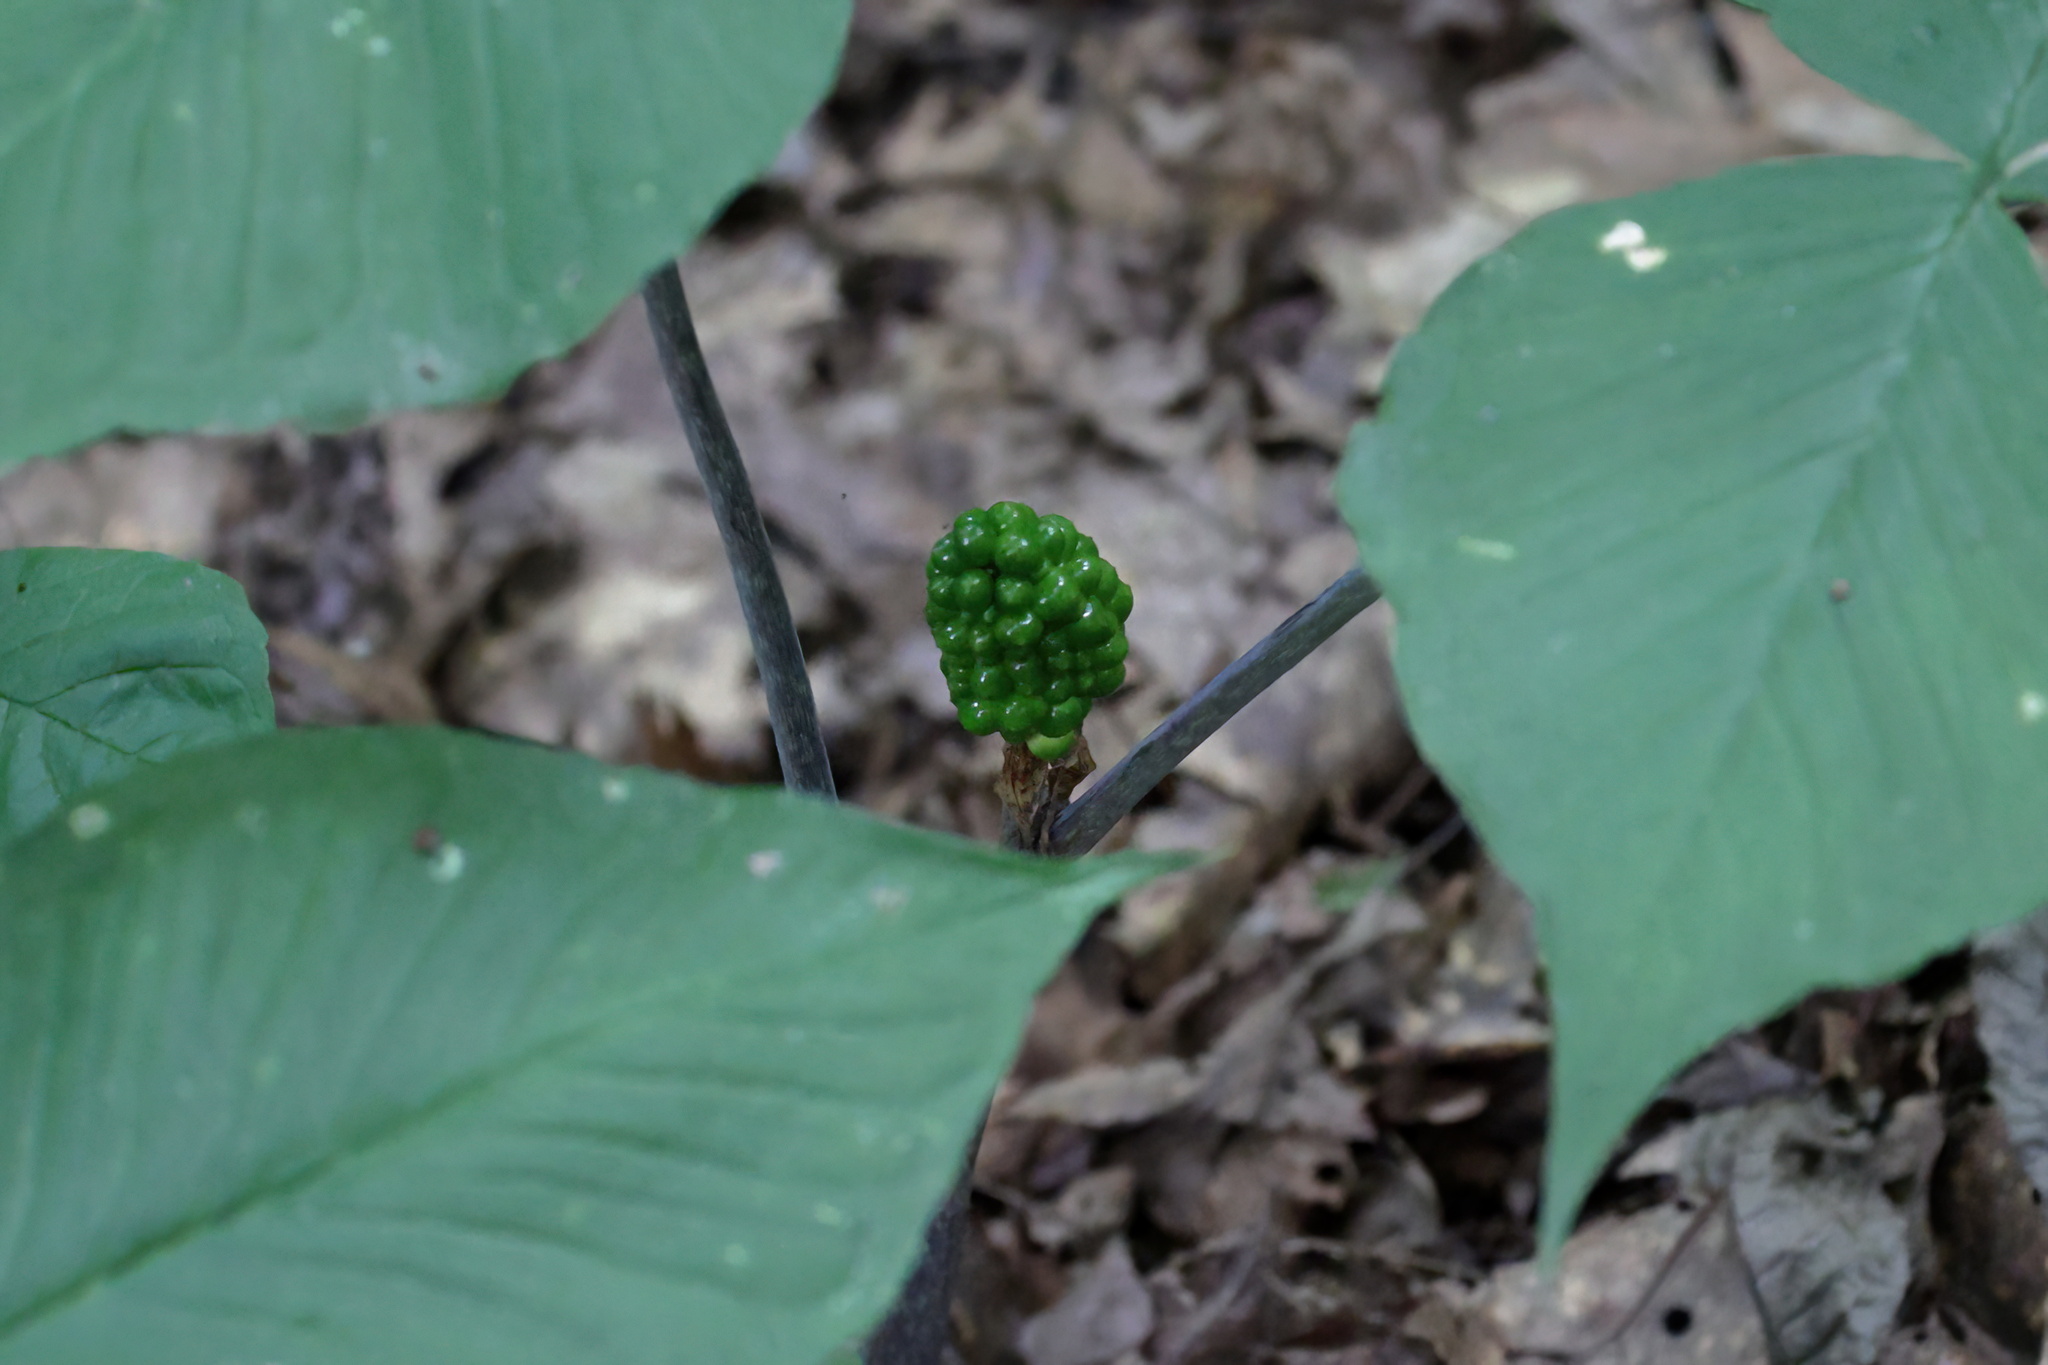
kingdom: Plantae
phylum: Tracheophyta
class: Liliopsida
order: Alismatales
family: Araceae
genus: Arisaema
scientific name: Arisaema triphyllum
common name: Jack-in-the-pulpit
